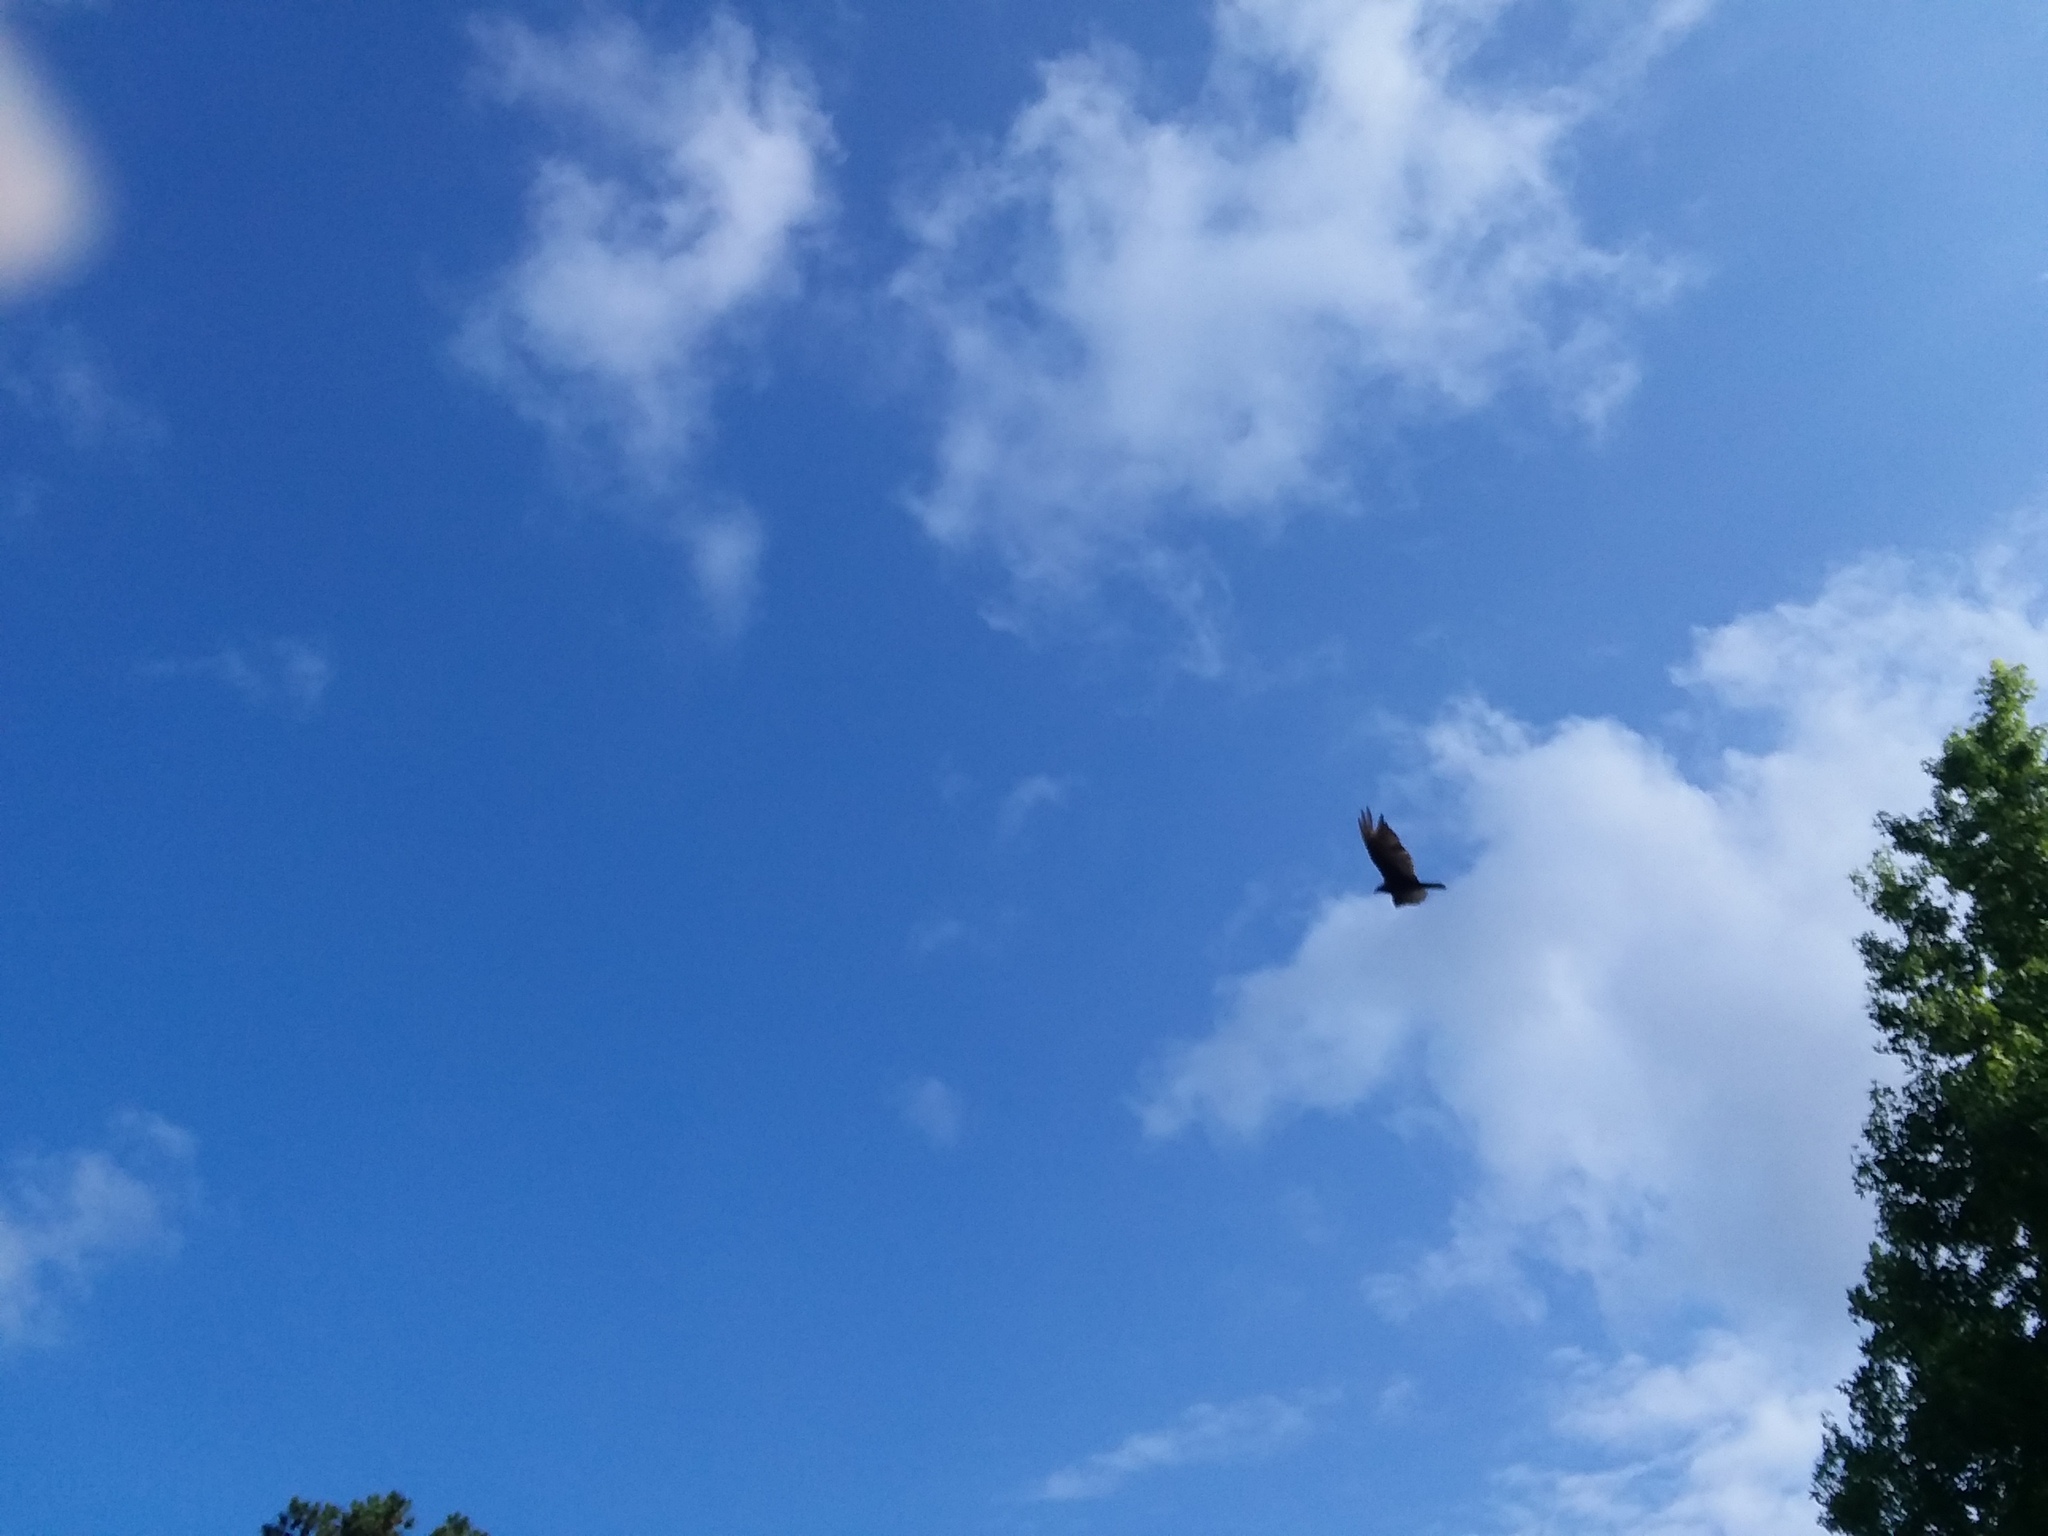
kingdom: Animalia
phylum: Chordata
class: Aves
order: Accipitriformes
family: Cathartidae
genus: Cathartes
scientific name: Cathartes aura
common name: Turkey vulture
